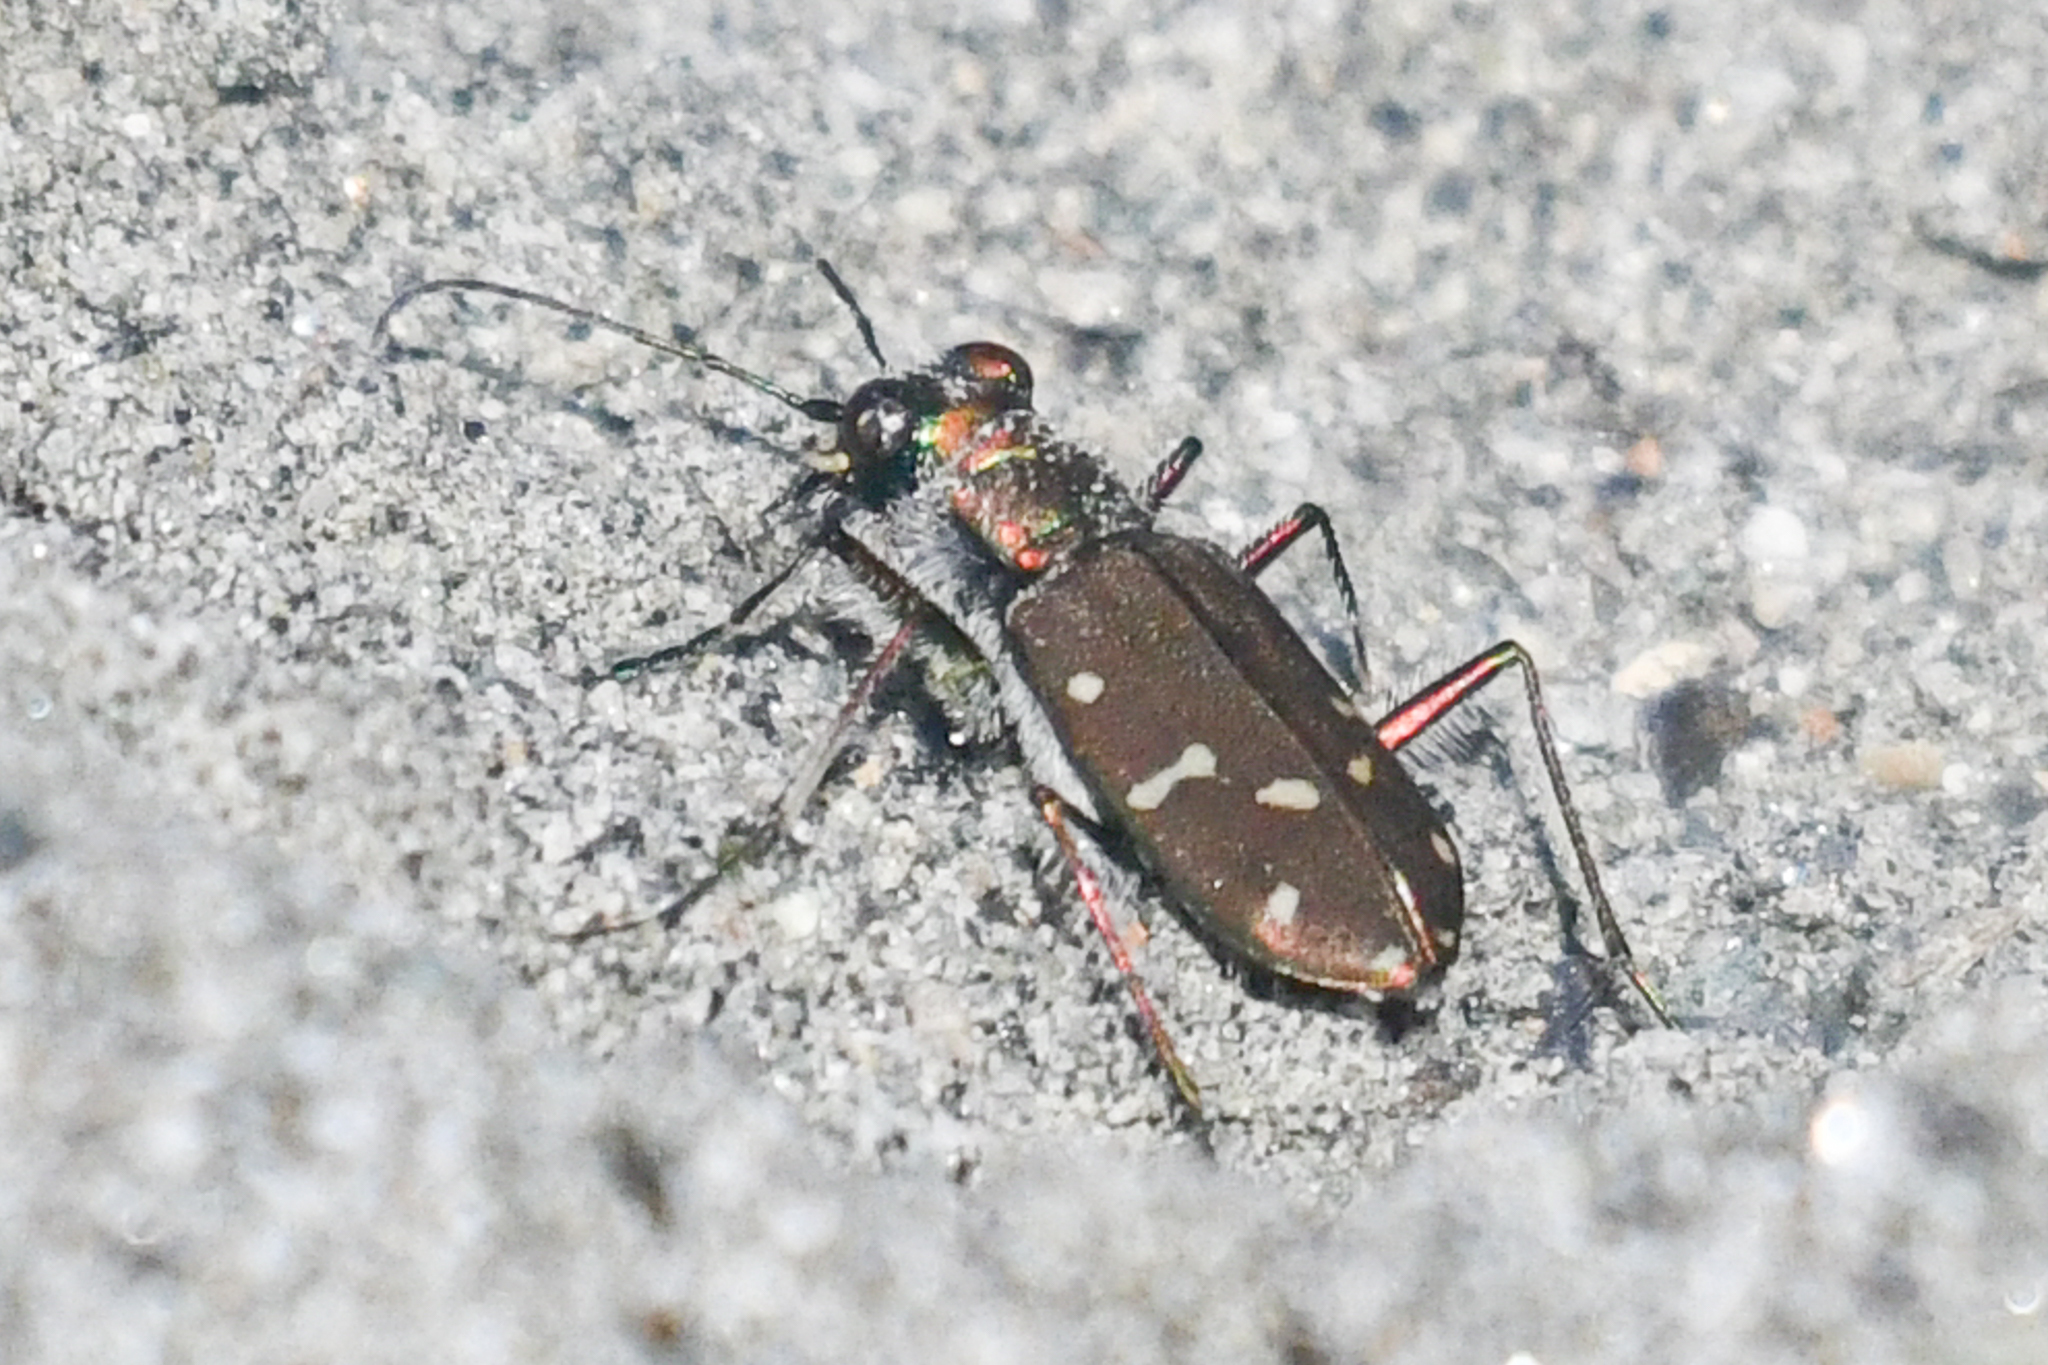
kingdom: Animalia
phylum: Arthropoda
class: Insecta
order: Coleoptera
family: Carabidae
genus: Cicindela
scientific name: Cicindela oregona
